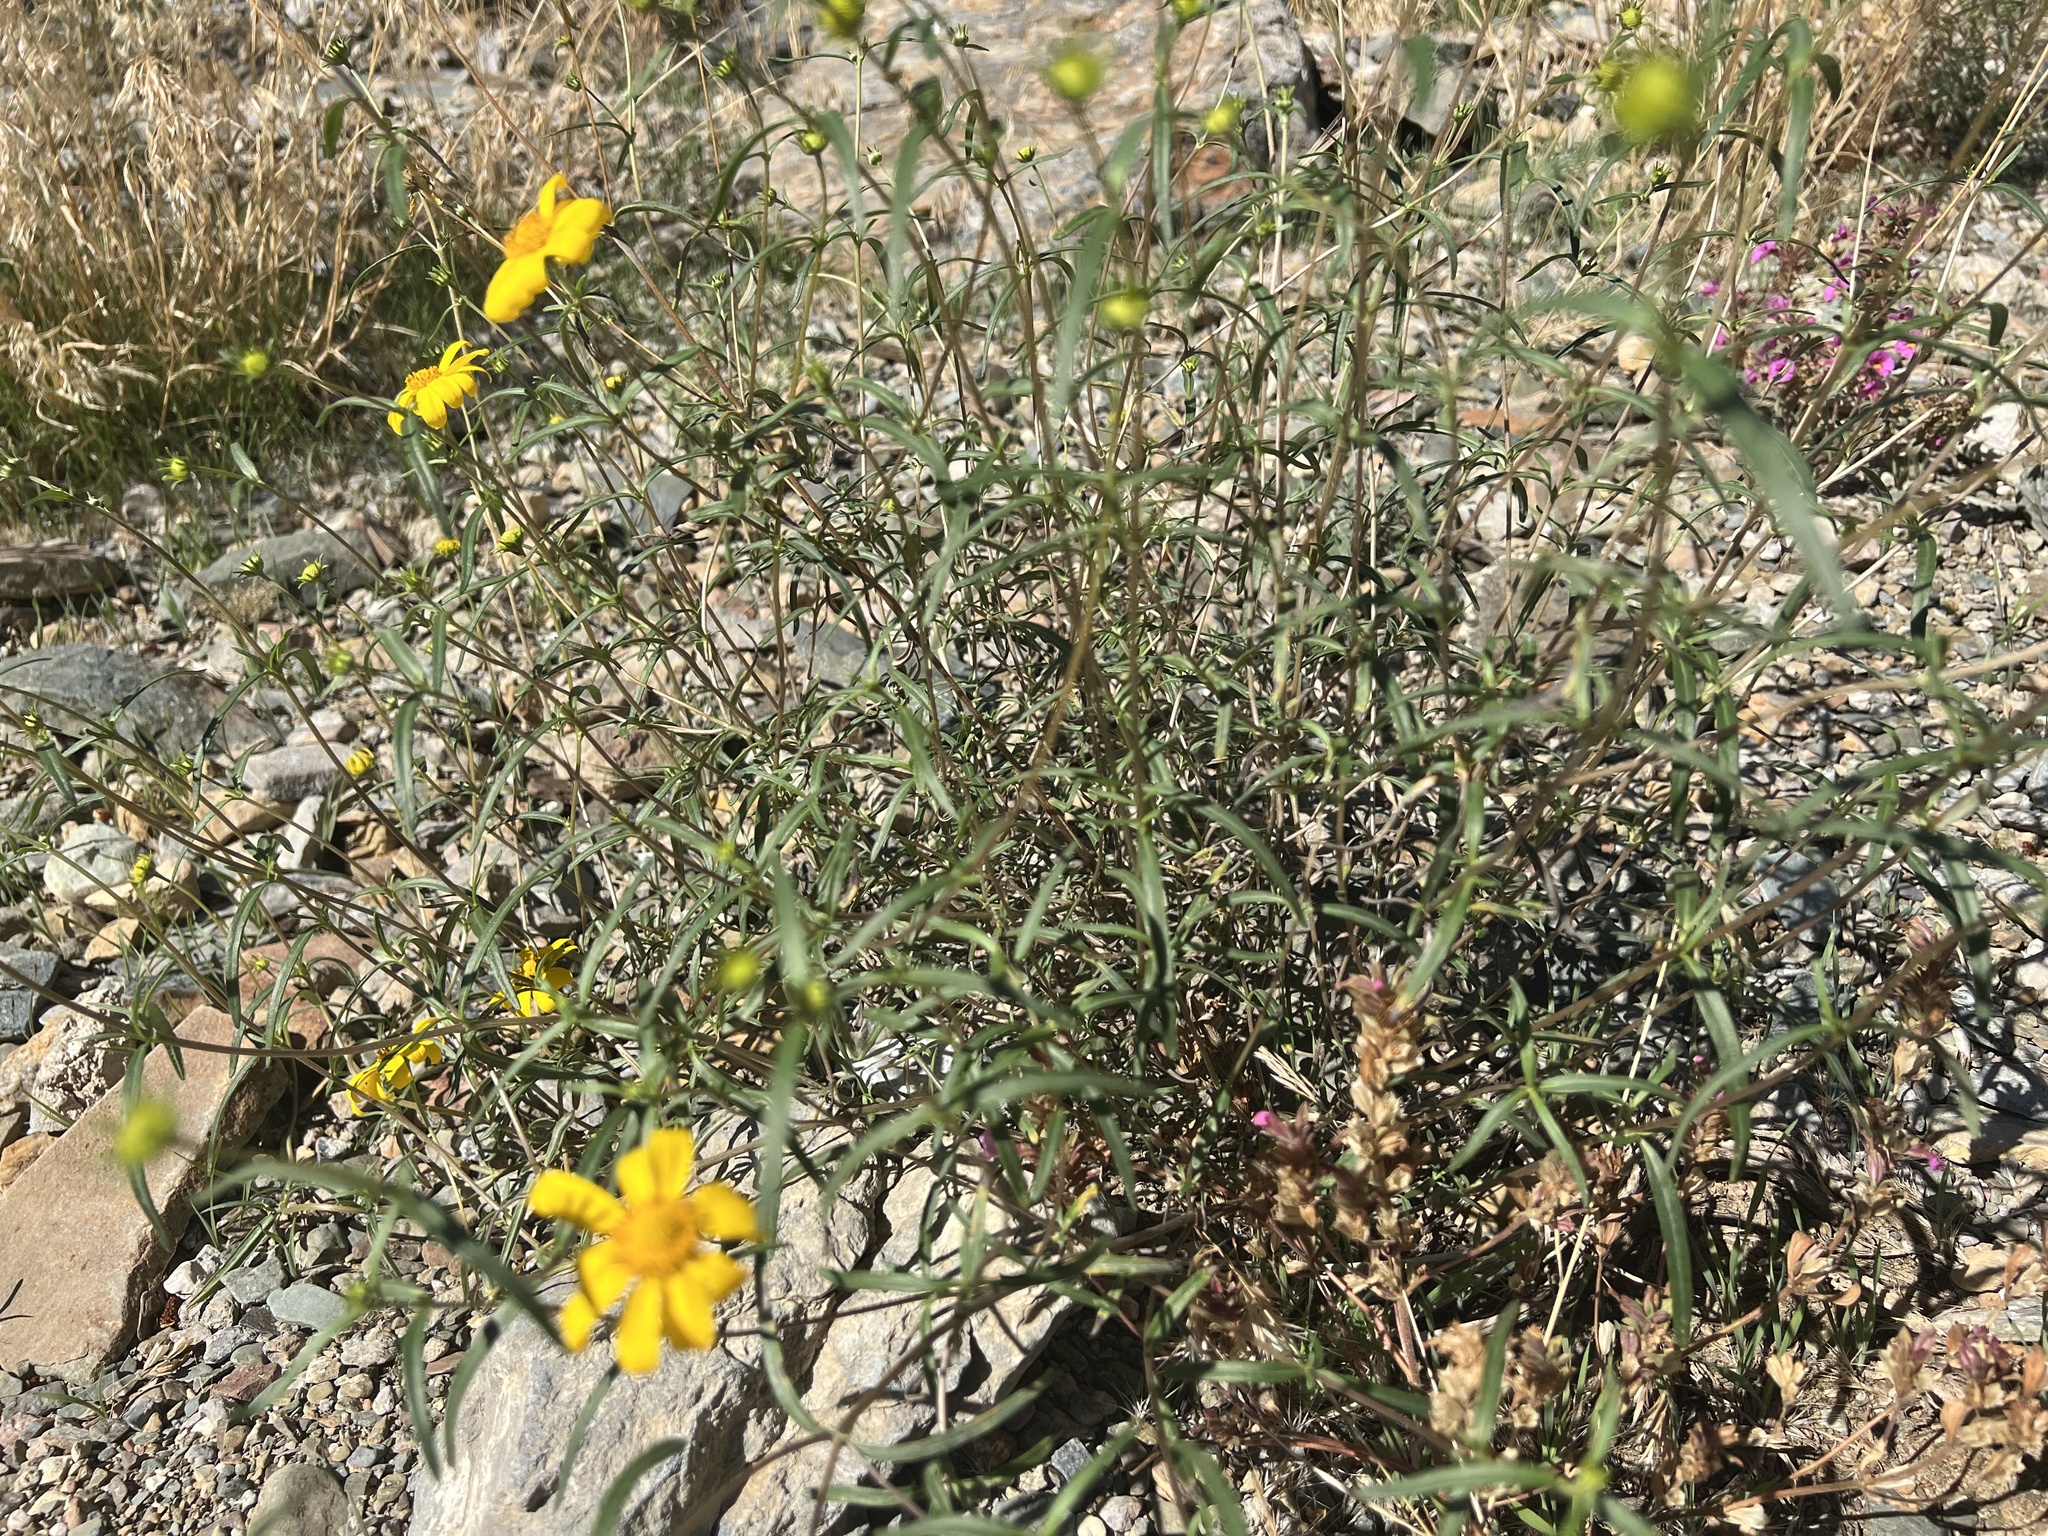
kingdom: Plantae
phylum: Tracheophyta
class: Magnoliopsida
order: Asterales
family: Asteraceae
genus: Heliomeris
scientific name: Heliomeris multiflora
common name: Showy goldeneye
